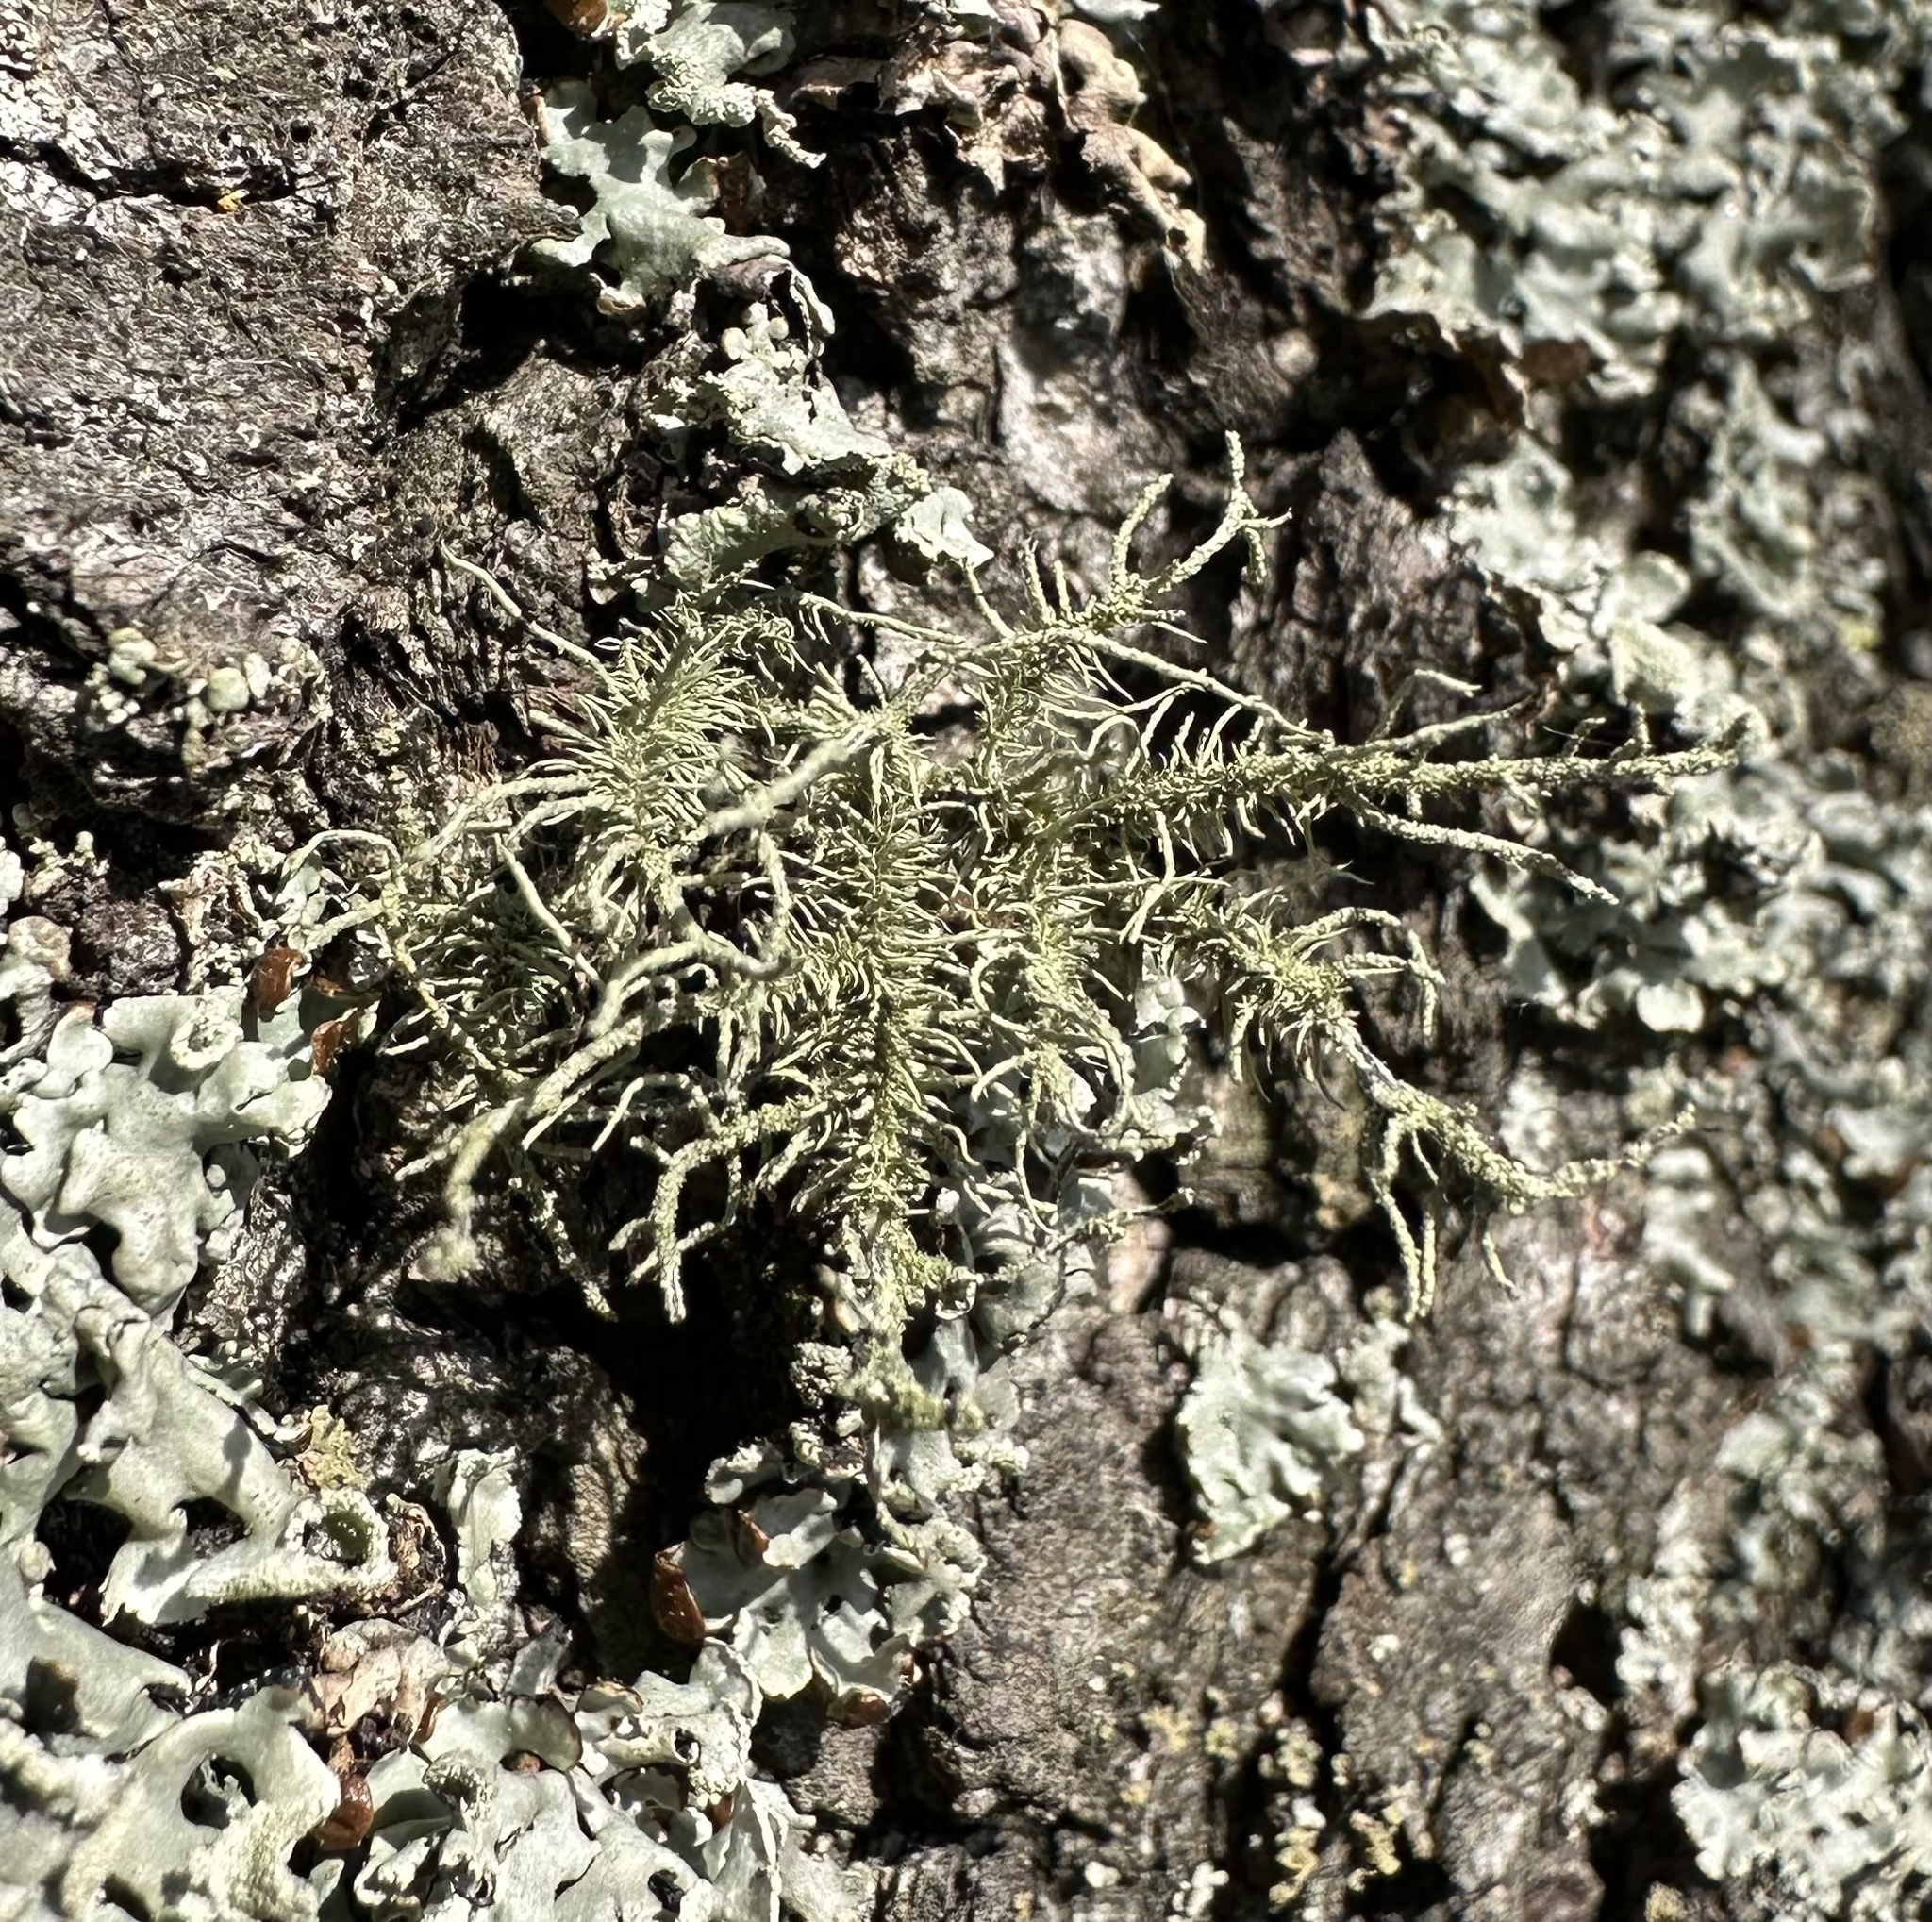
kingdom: Fungi
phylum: Ascomycota
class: Lecanoromycetes
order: Lecanorales
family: Parmeliaceae
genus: Usnea
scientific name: Usnea hirta
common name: Bristly beard lichen
